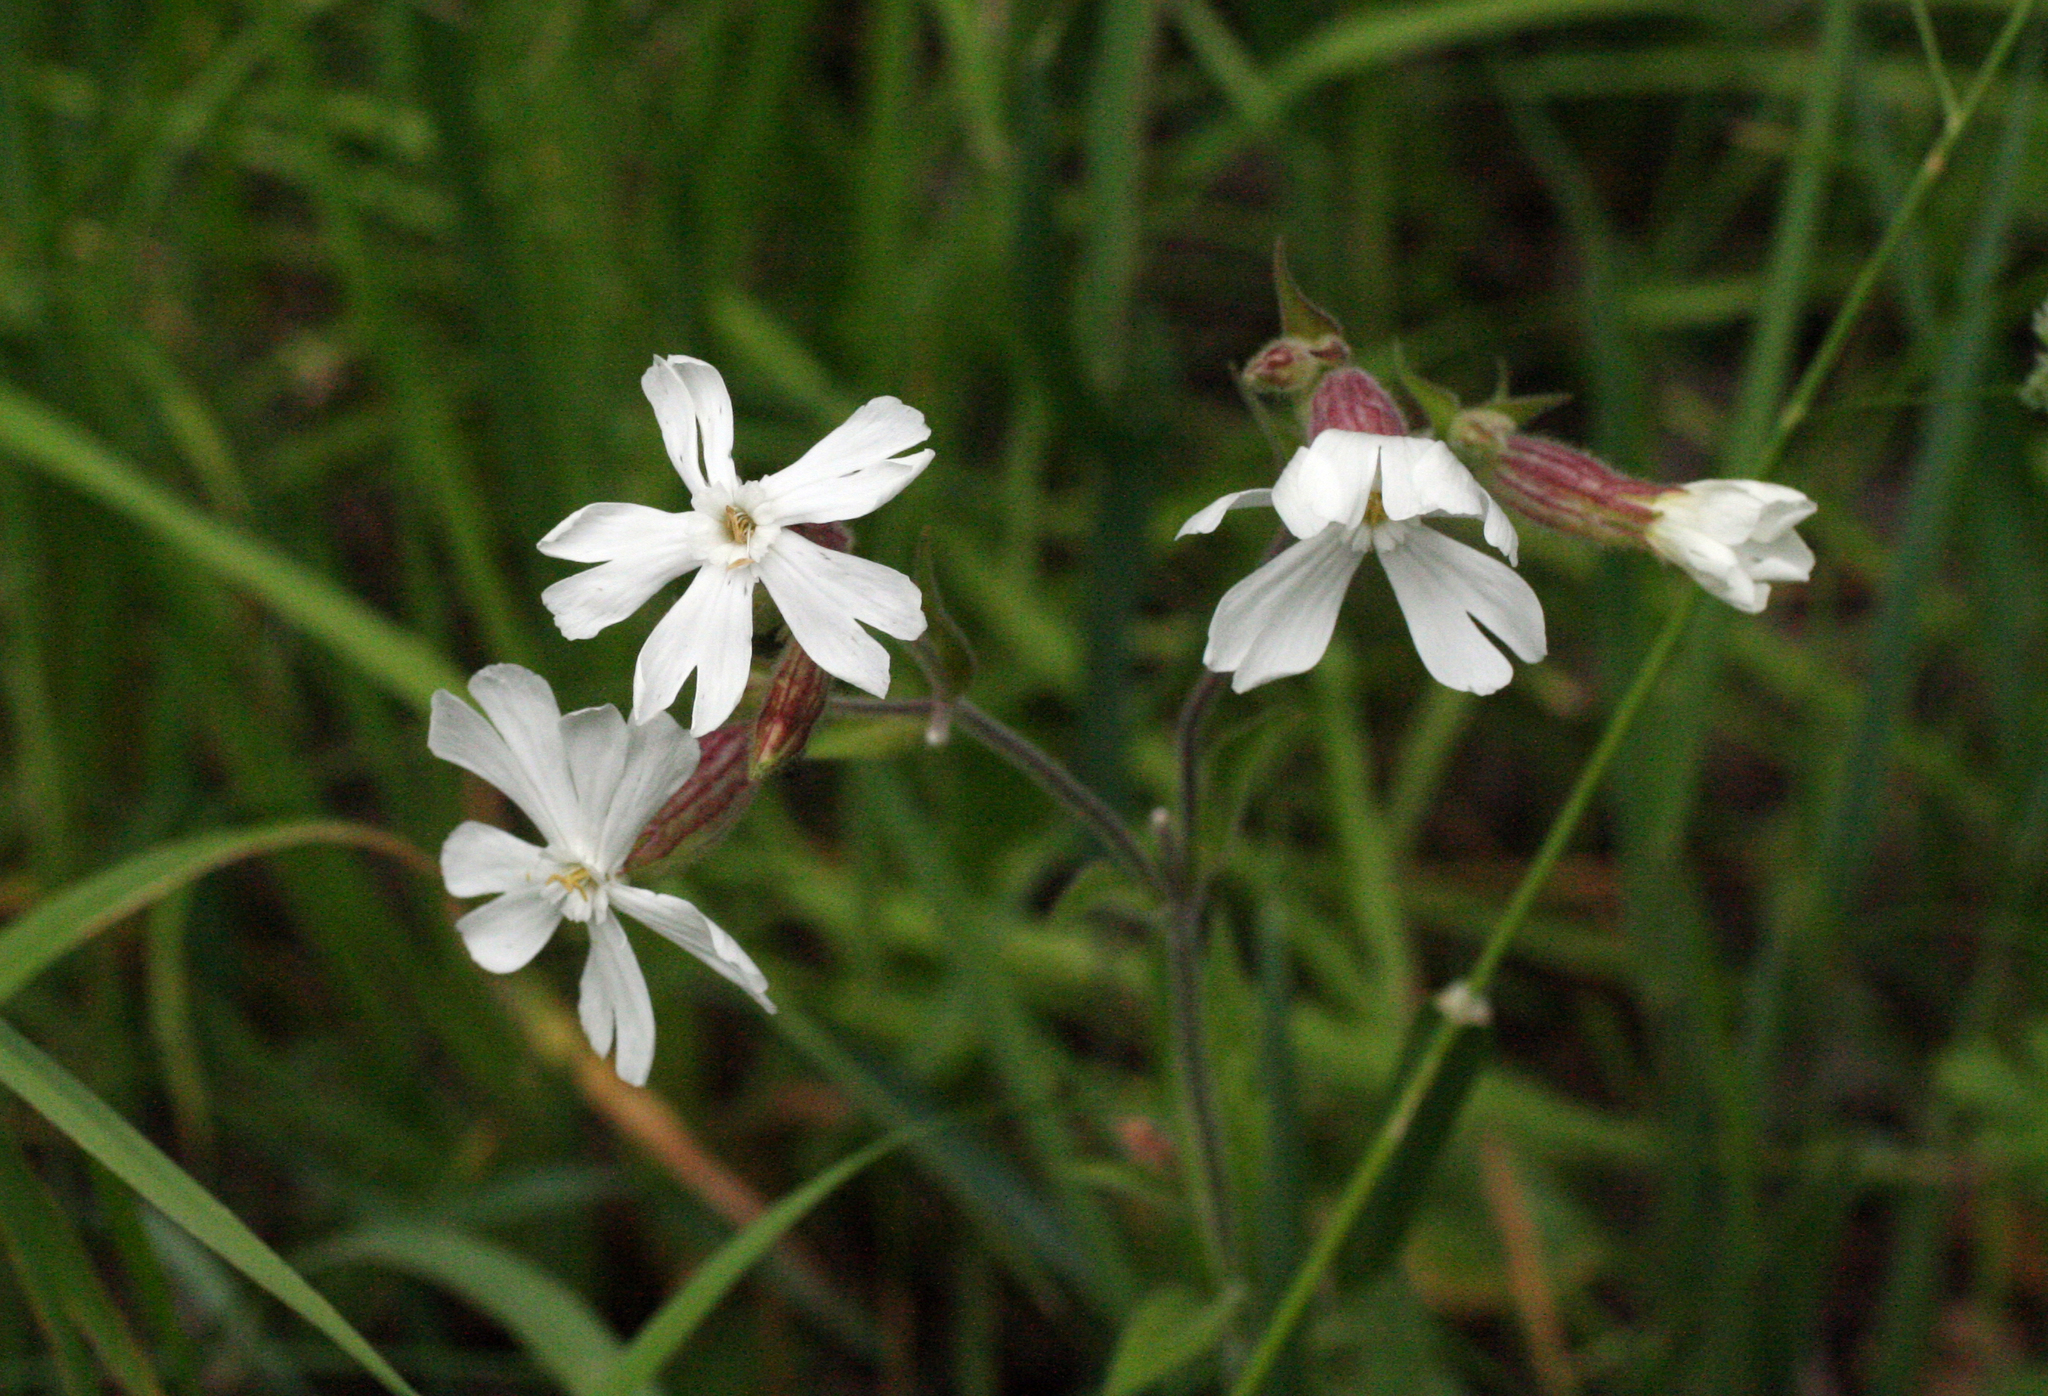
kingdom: Plantae
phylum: Tracheophyta
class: Magnoliopsida
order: Caryophyllales
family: Caryophyllaceae
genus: Silene
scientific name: Silene latifolia
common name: White campion
